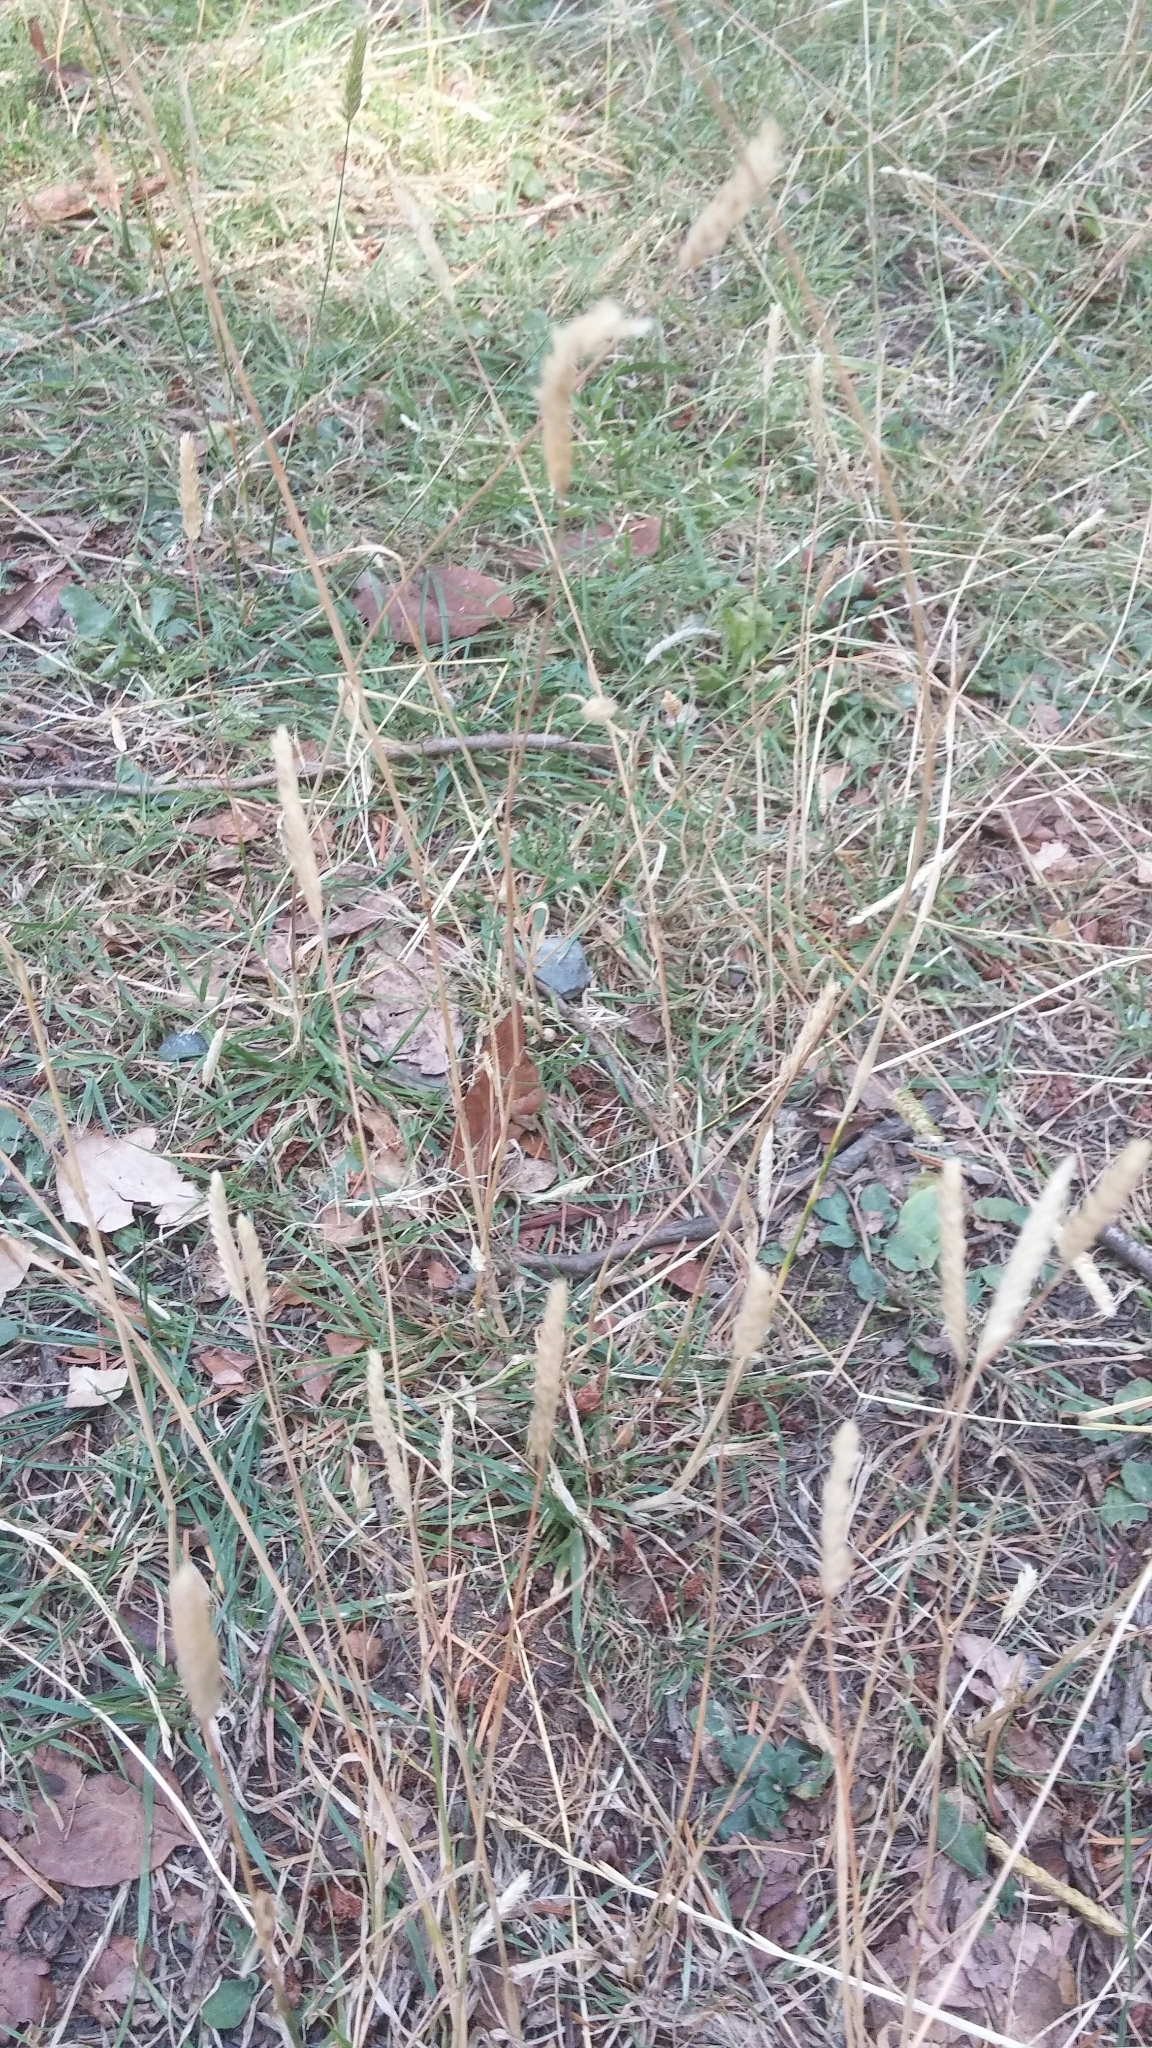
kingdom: Plantae
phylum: Tracheophyta
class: Liliopsida
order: Poales
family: Poaceae
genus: Koeleria
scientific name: Koeleria macrantha
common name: Crested hair-grass
